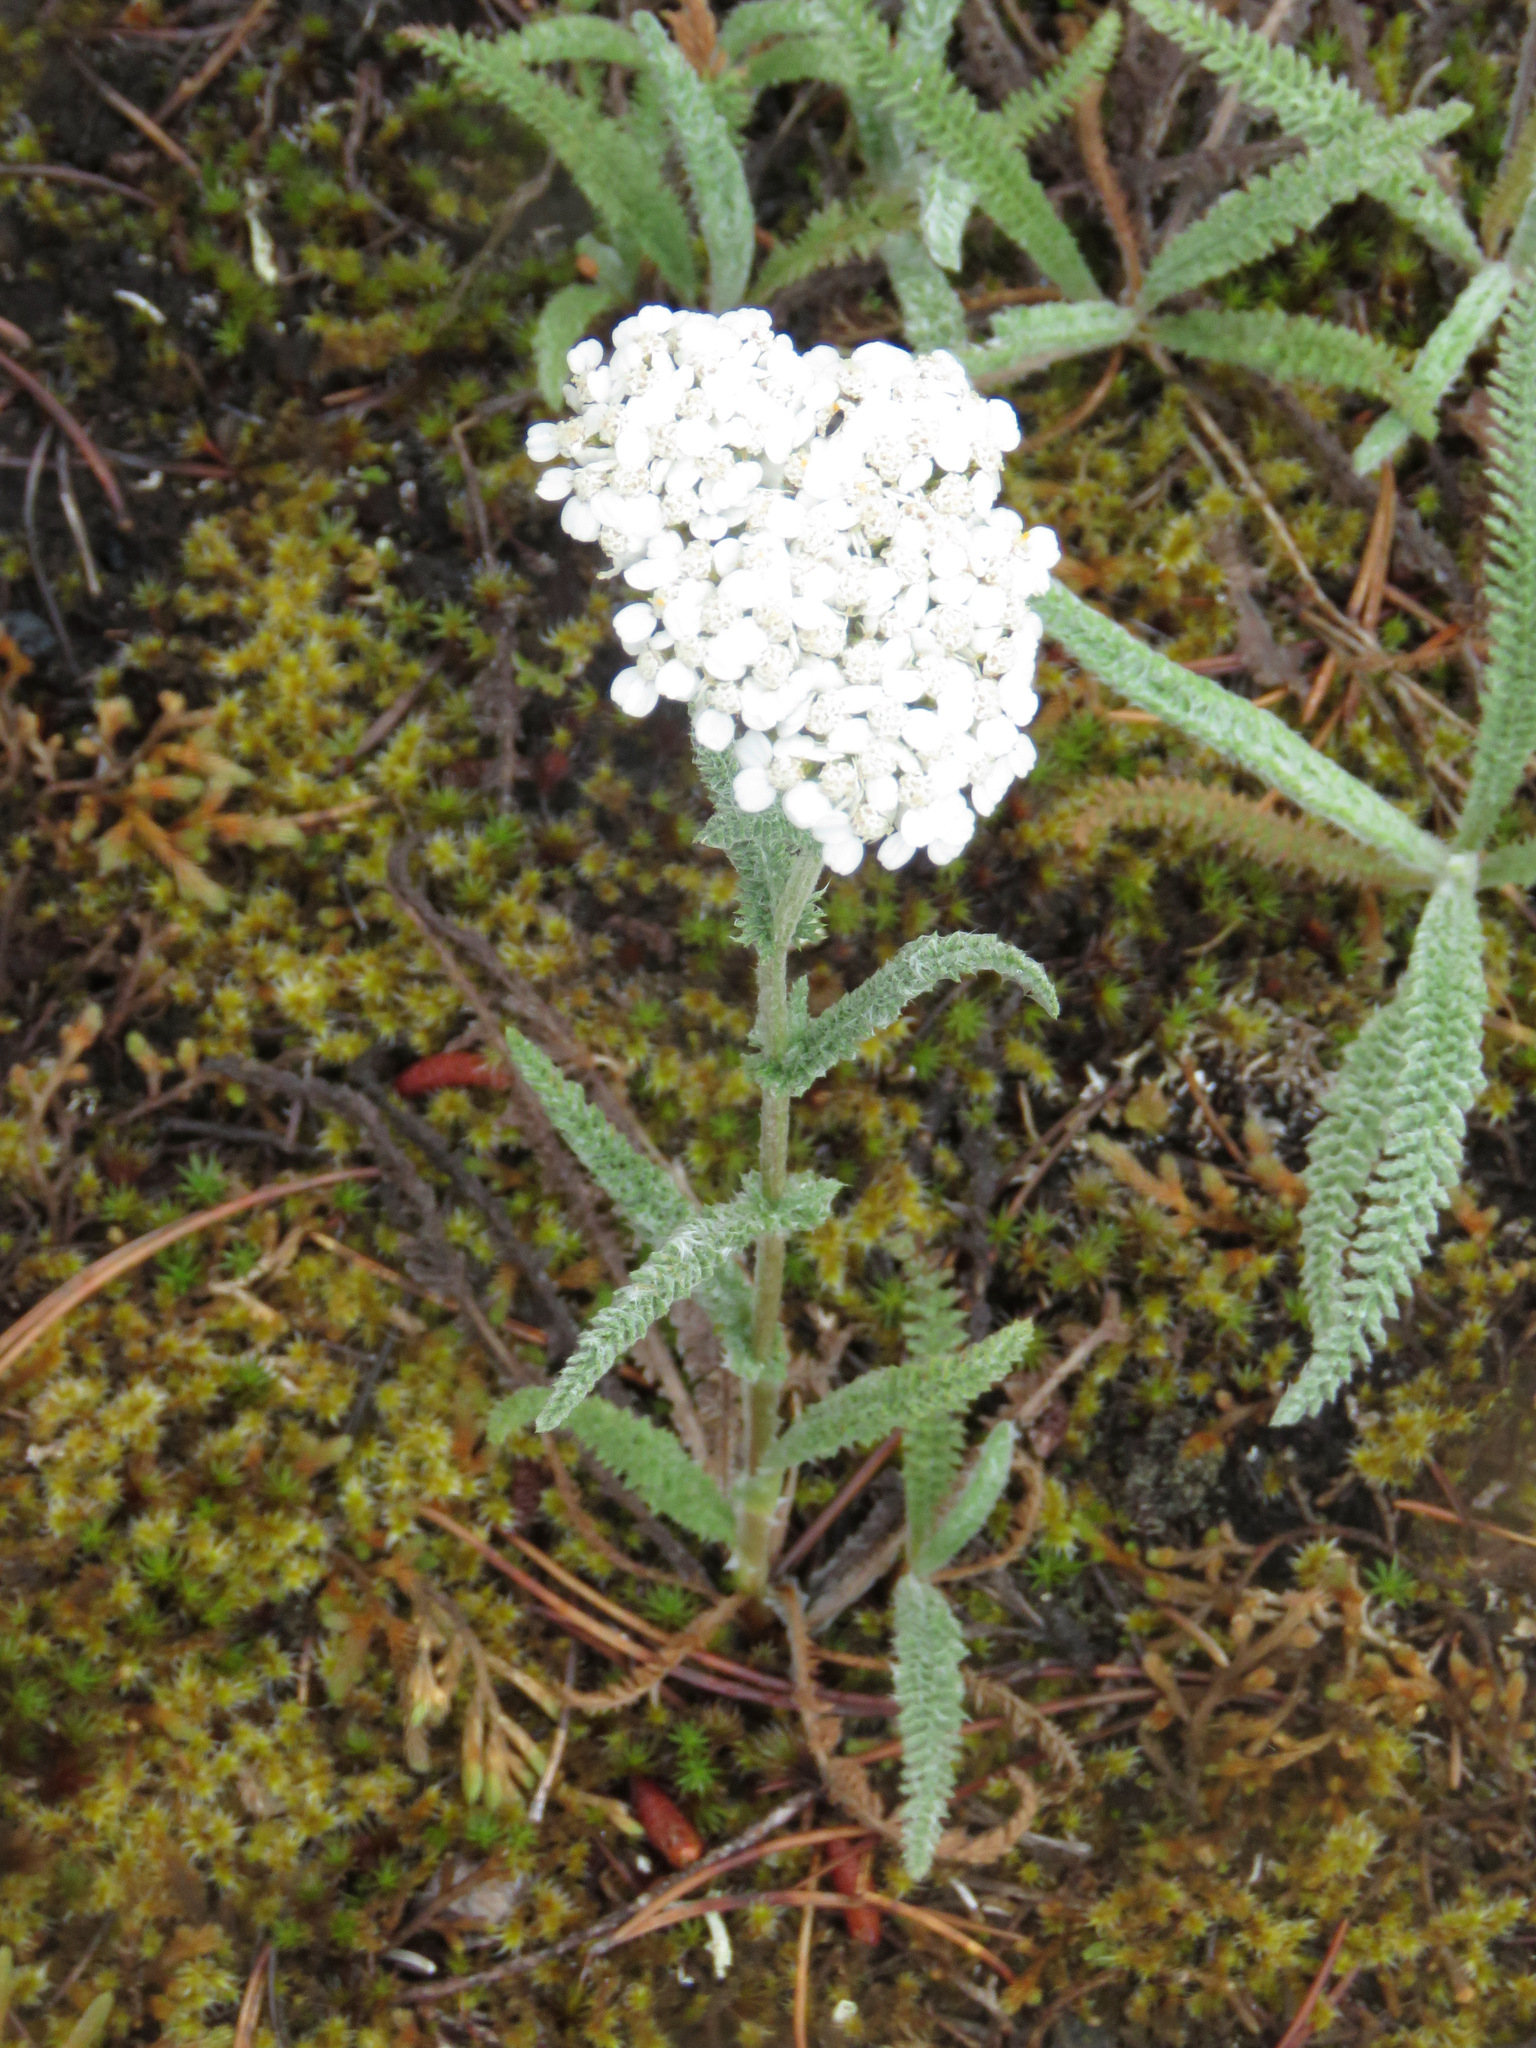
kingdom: Plantae
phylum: Tracheophyta
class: Magnoliopsida
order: Asterales
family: Asteraceae
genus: Achillea
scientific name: Achillea millefolium
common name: Yarrow
